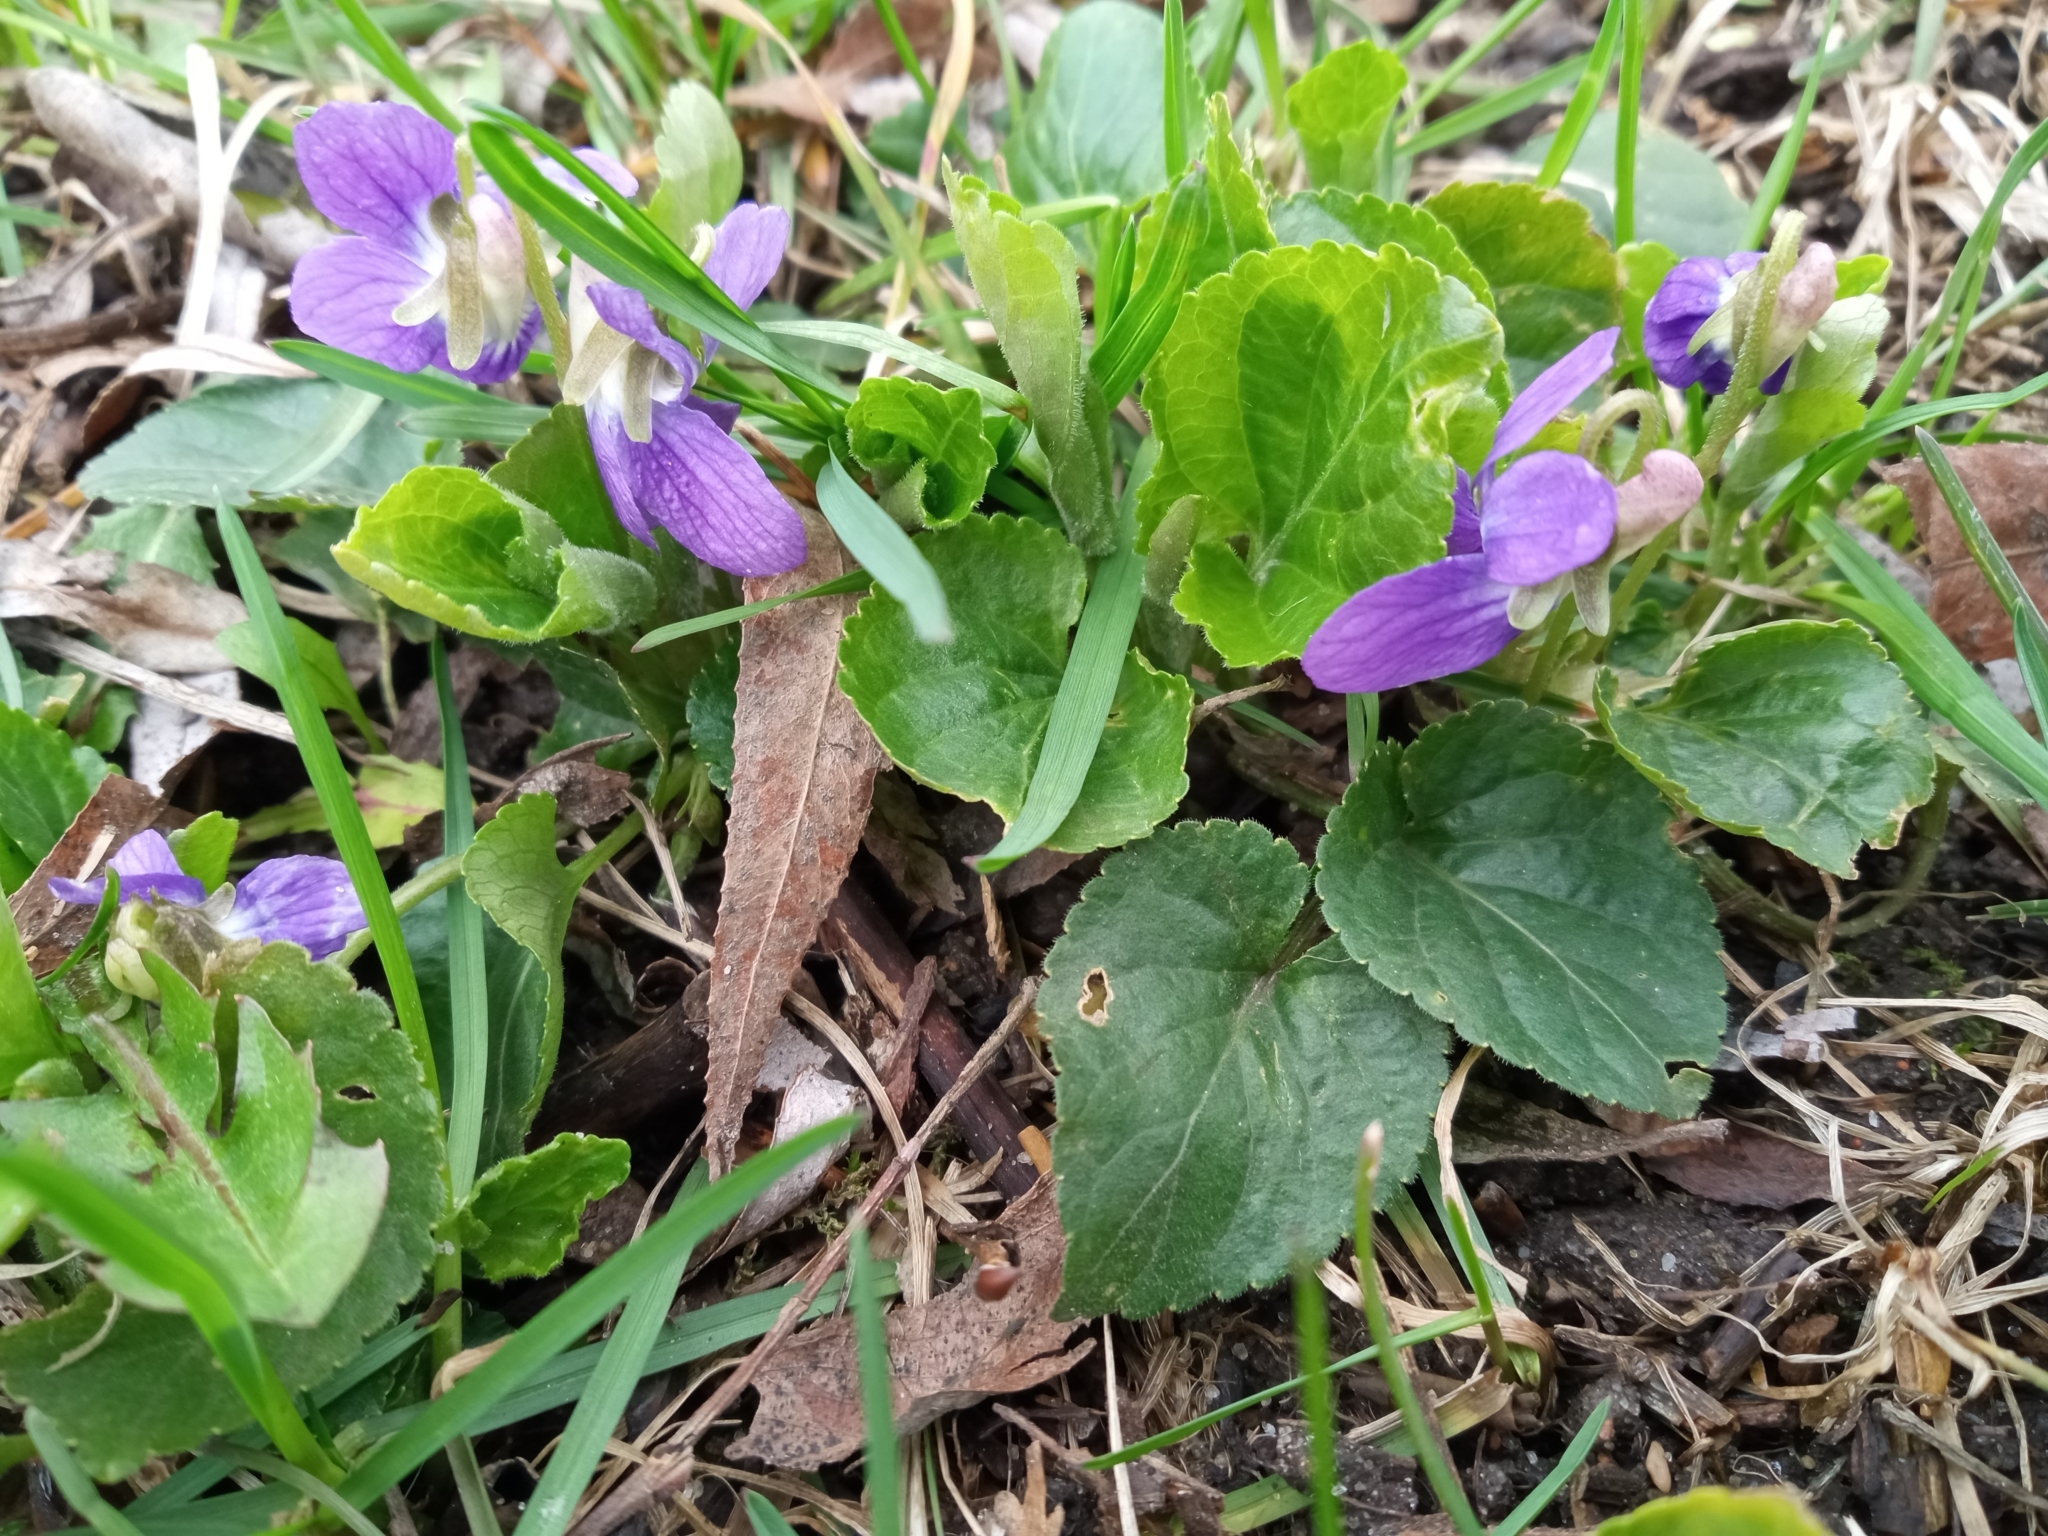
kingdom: Plantae
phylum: Tracheophyta
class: Magnoliopsida
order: Malpighiales
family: Violaceae
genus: Viola
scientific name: Viola odorata
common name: Sweet violet
